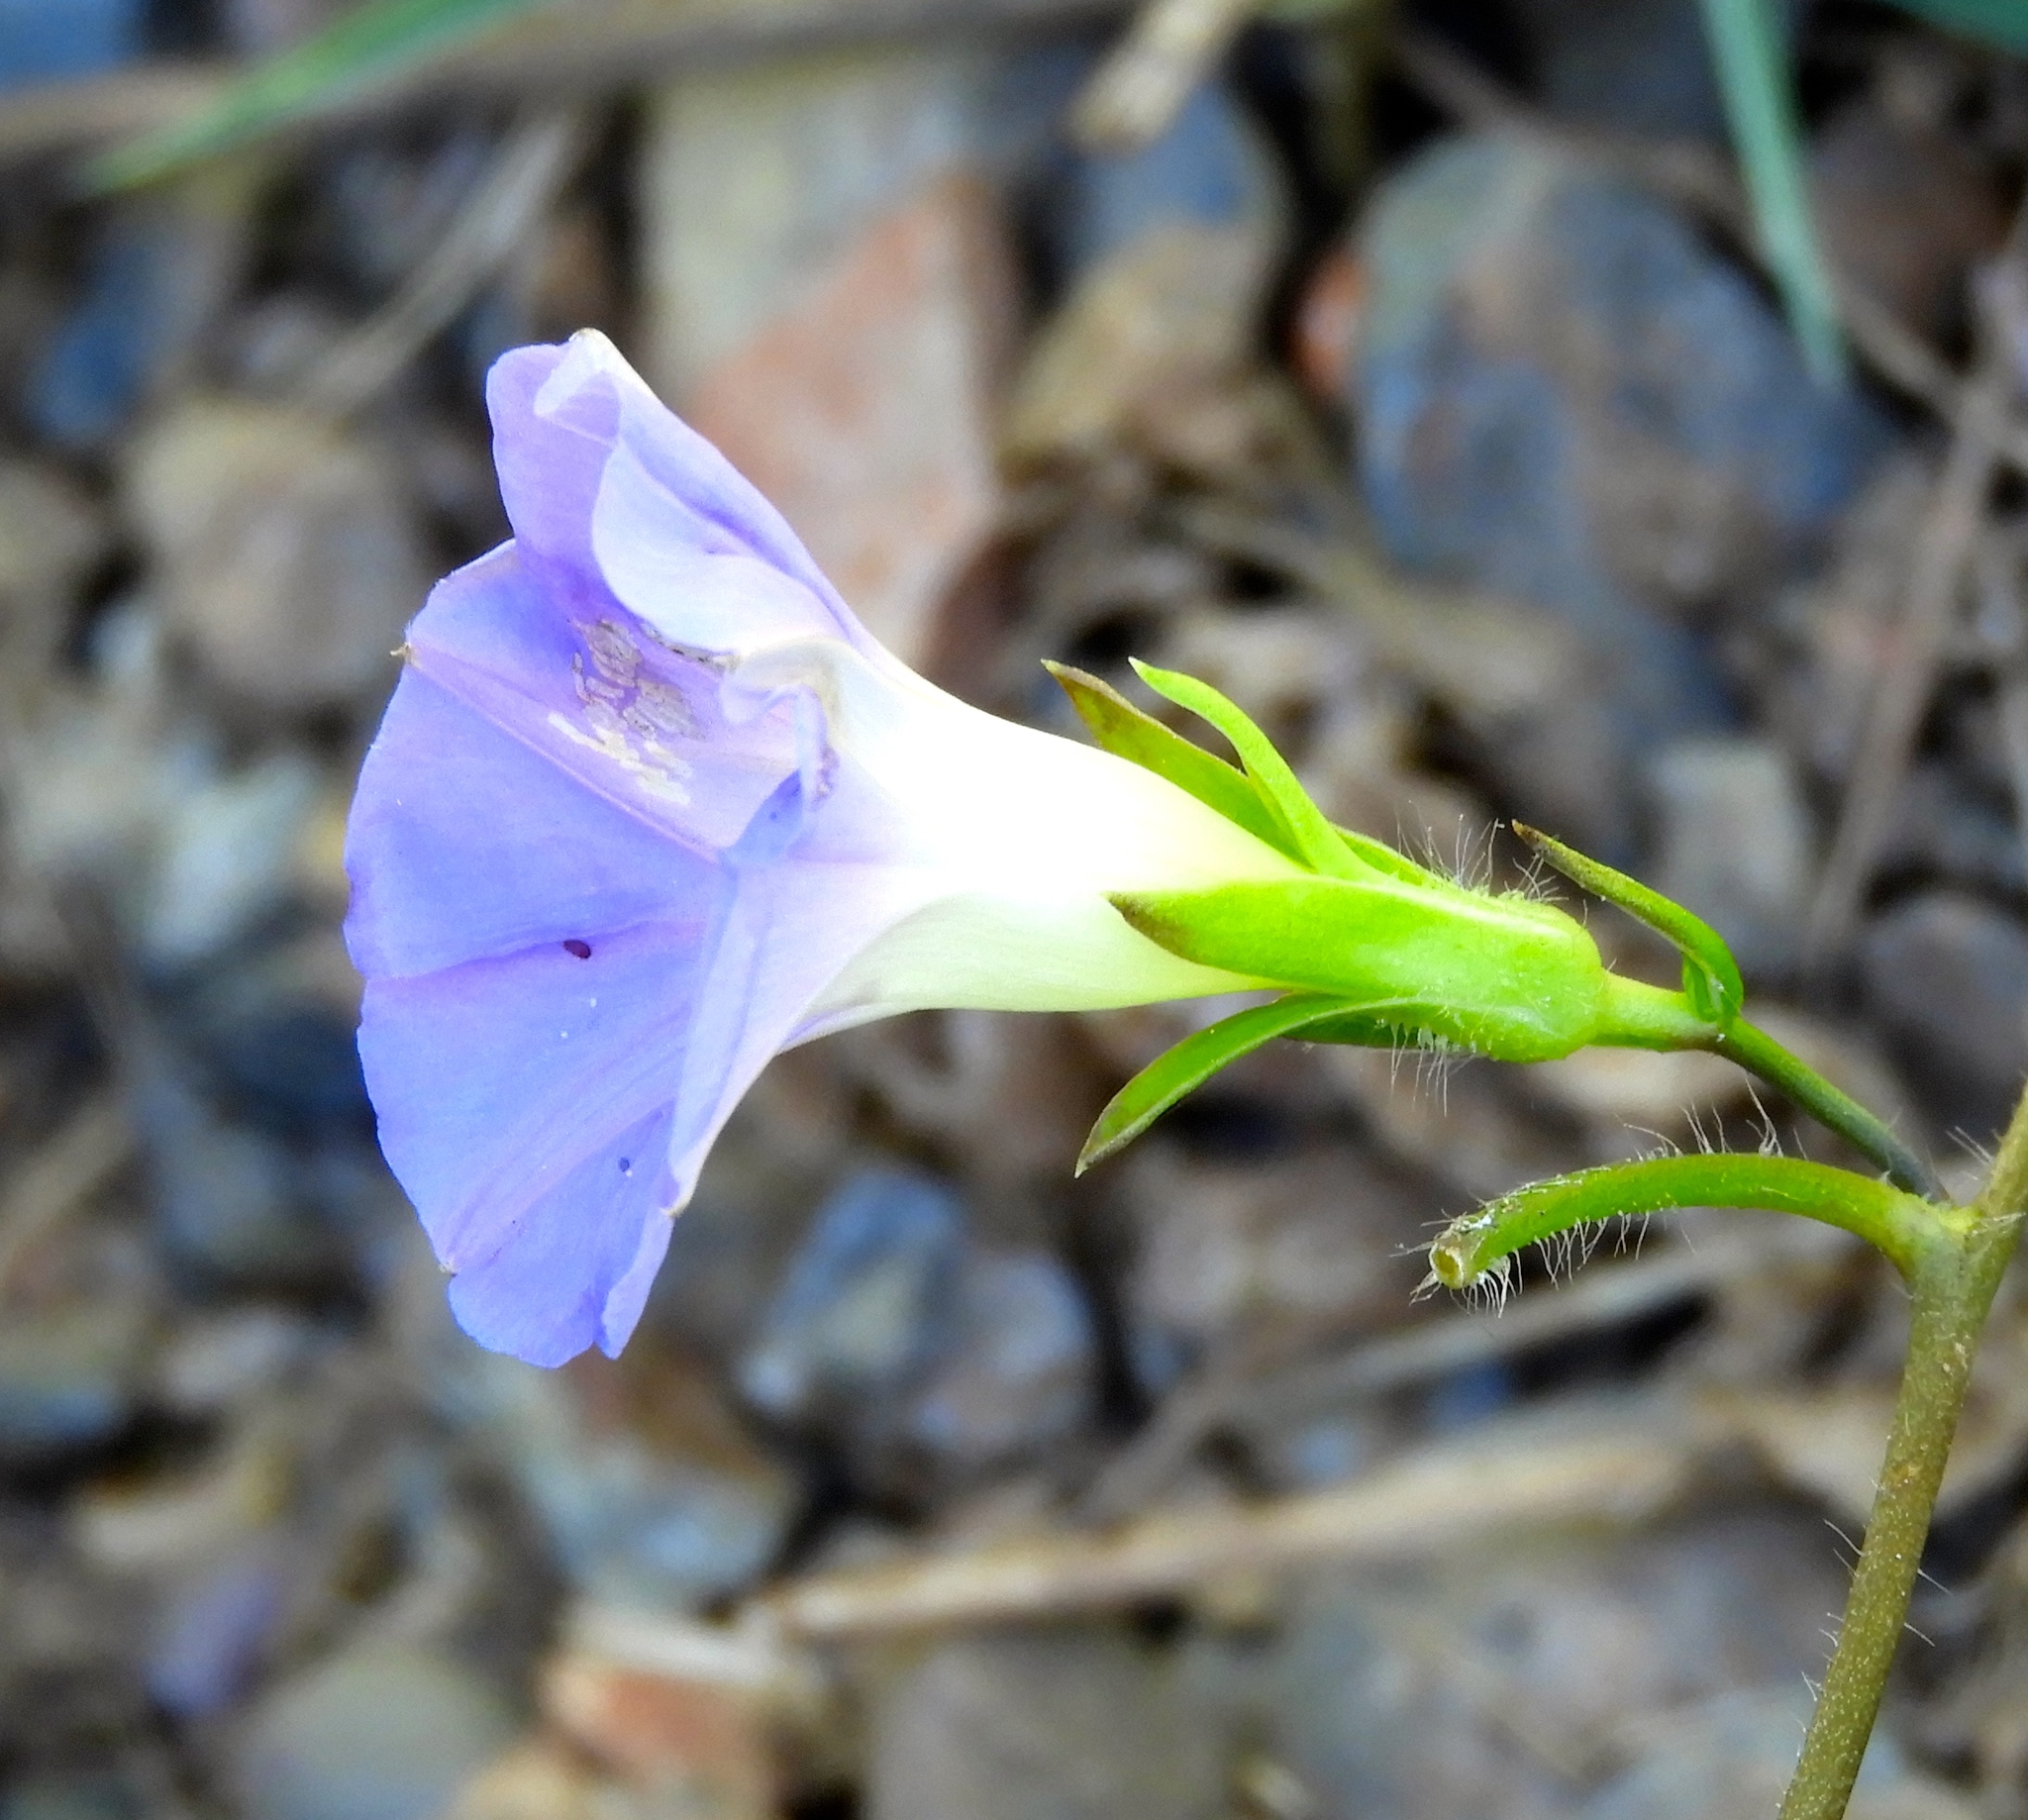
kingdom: Plantae
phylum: Tracheophyta
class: Magnoliopsida
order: Solanales
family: Convolvulaceae
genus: Ipomoea
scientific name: Ipomoea meyeri
